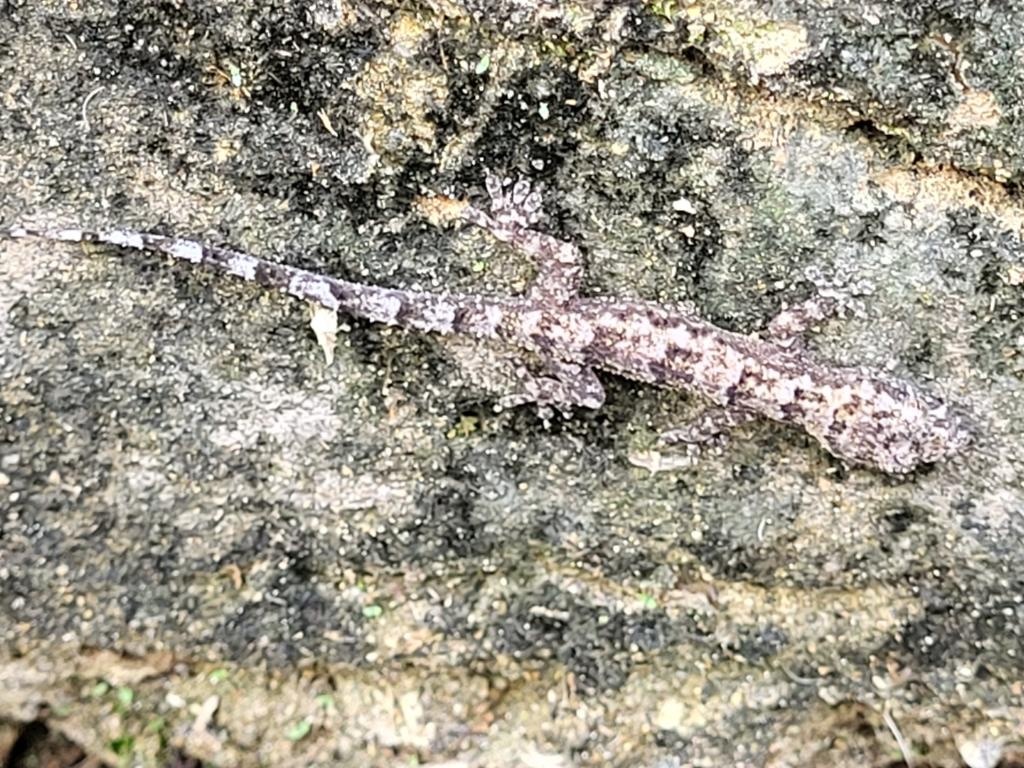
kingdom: Animalia
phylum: Chordata
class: Squamata
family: Gekkonidae
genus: Hemidactylus
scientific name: Hemidactylus mabouia
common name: House gecko
